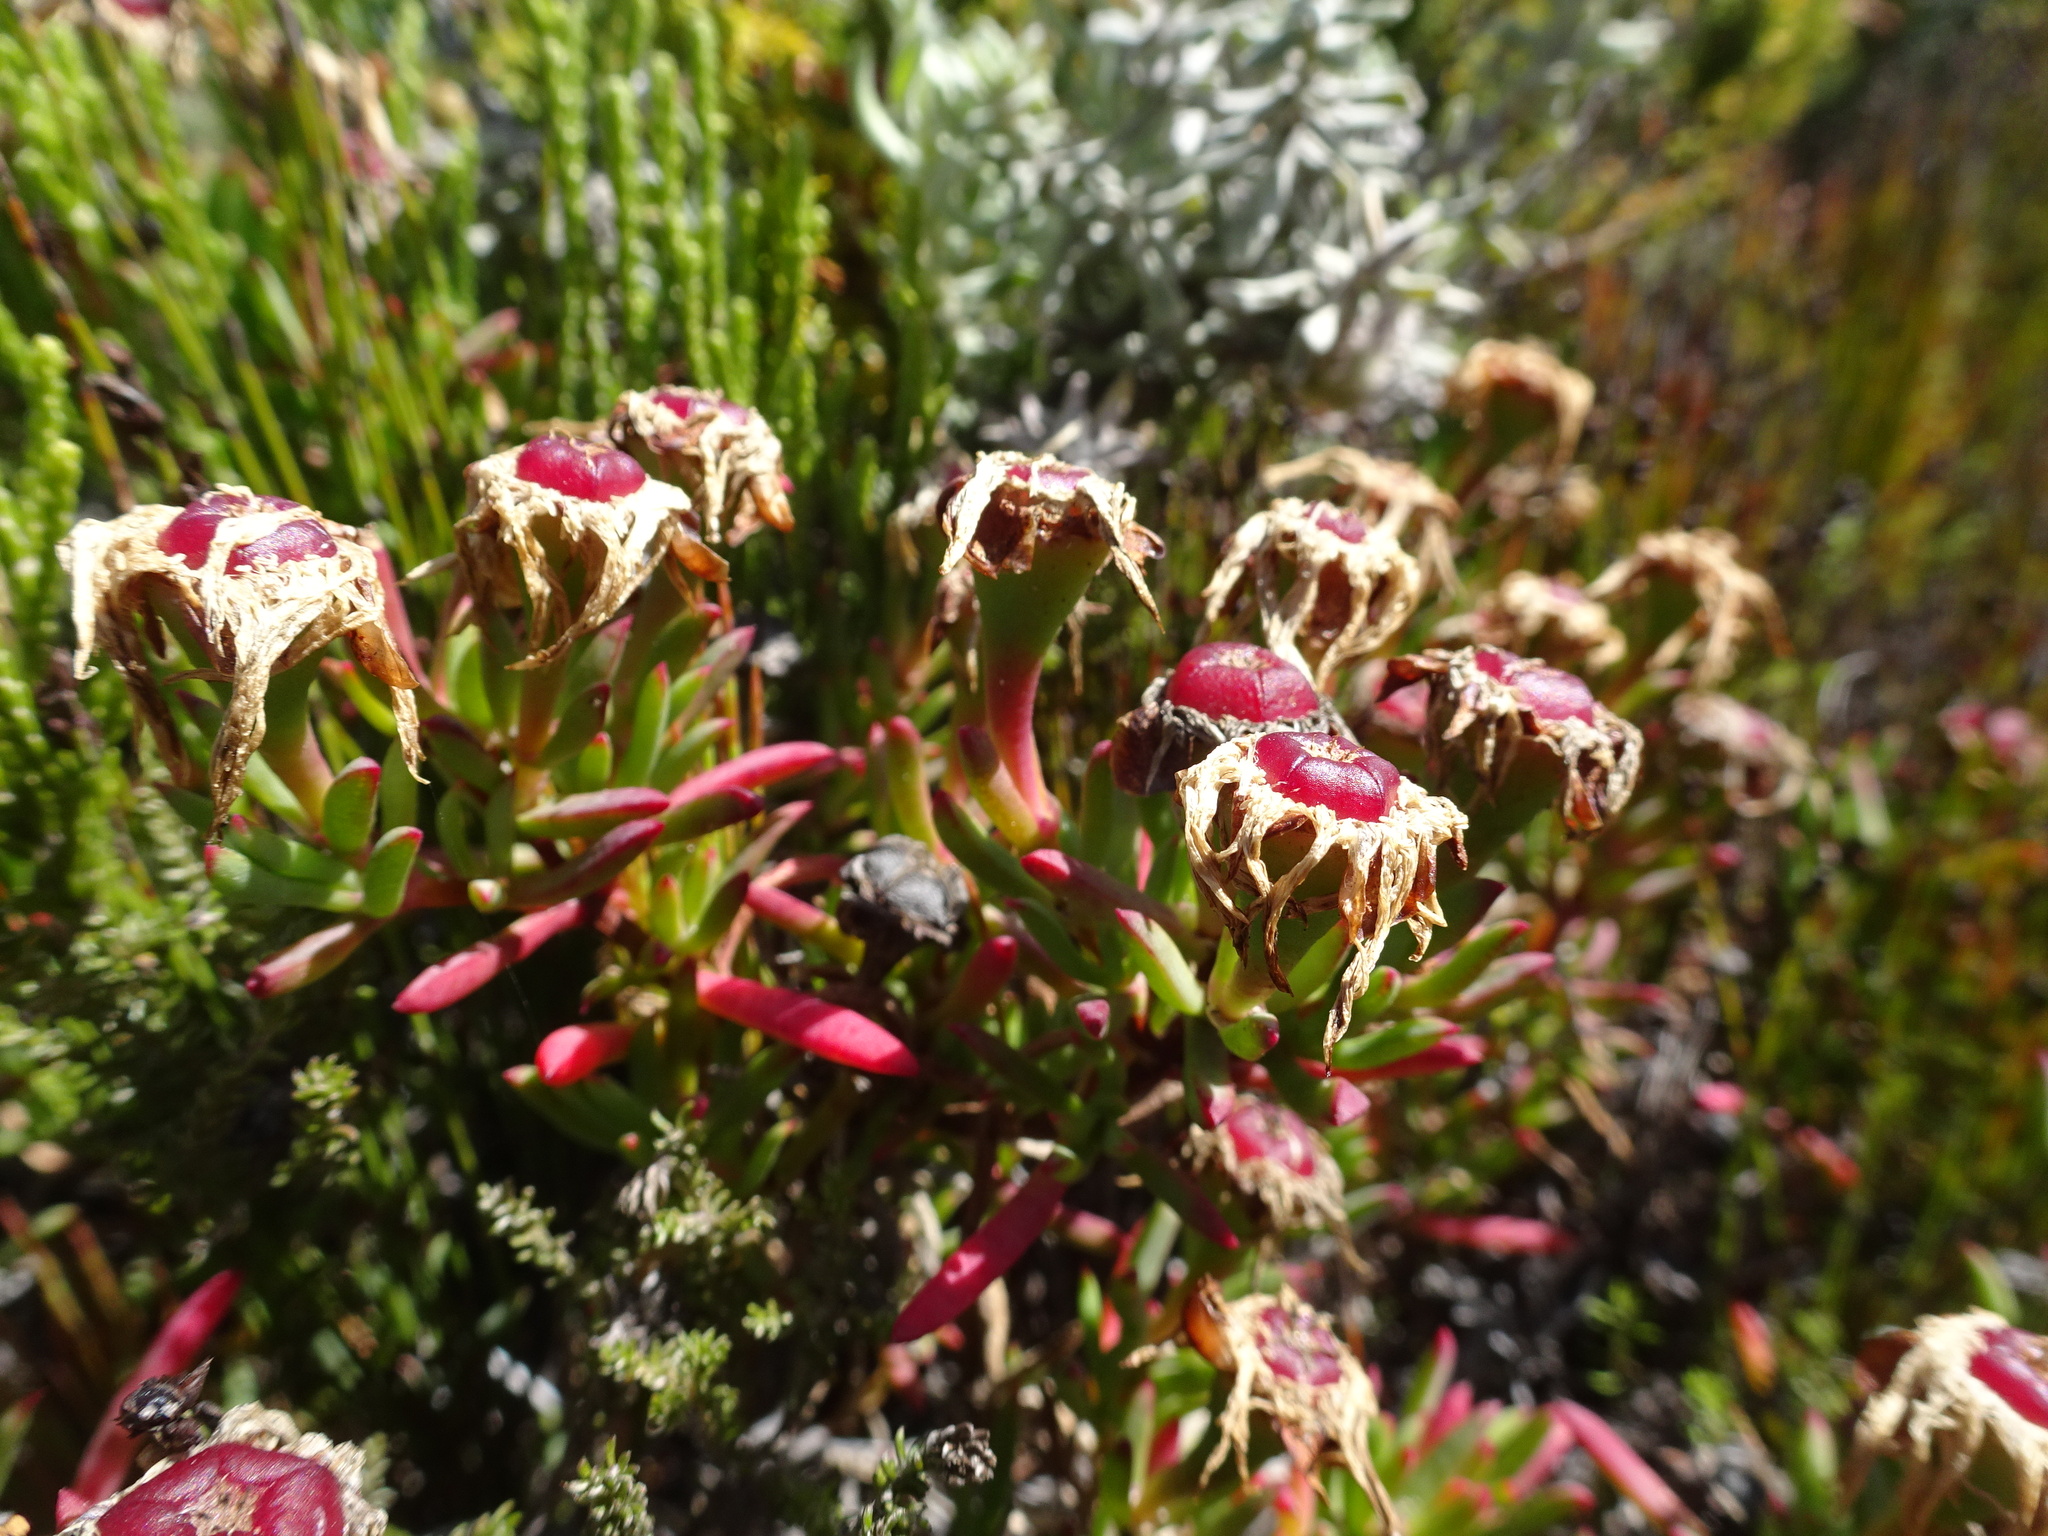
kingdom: Plantae
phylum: Tracheophyta
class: Magnoliopsida
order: Caryophyllales
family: Aizoaceae
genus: Lampranthus
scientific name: Lampranthus ceriseus
